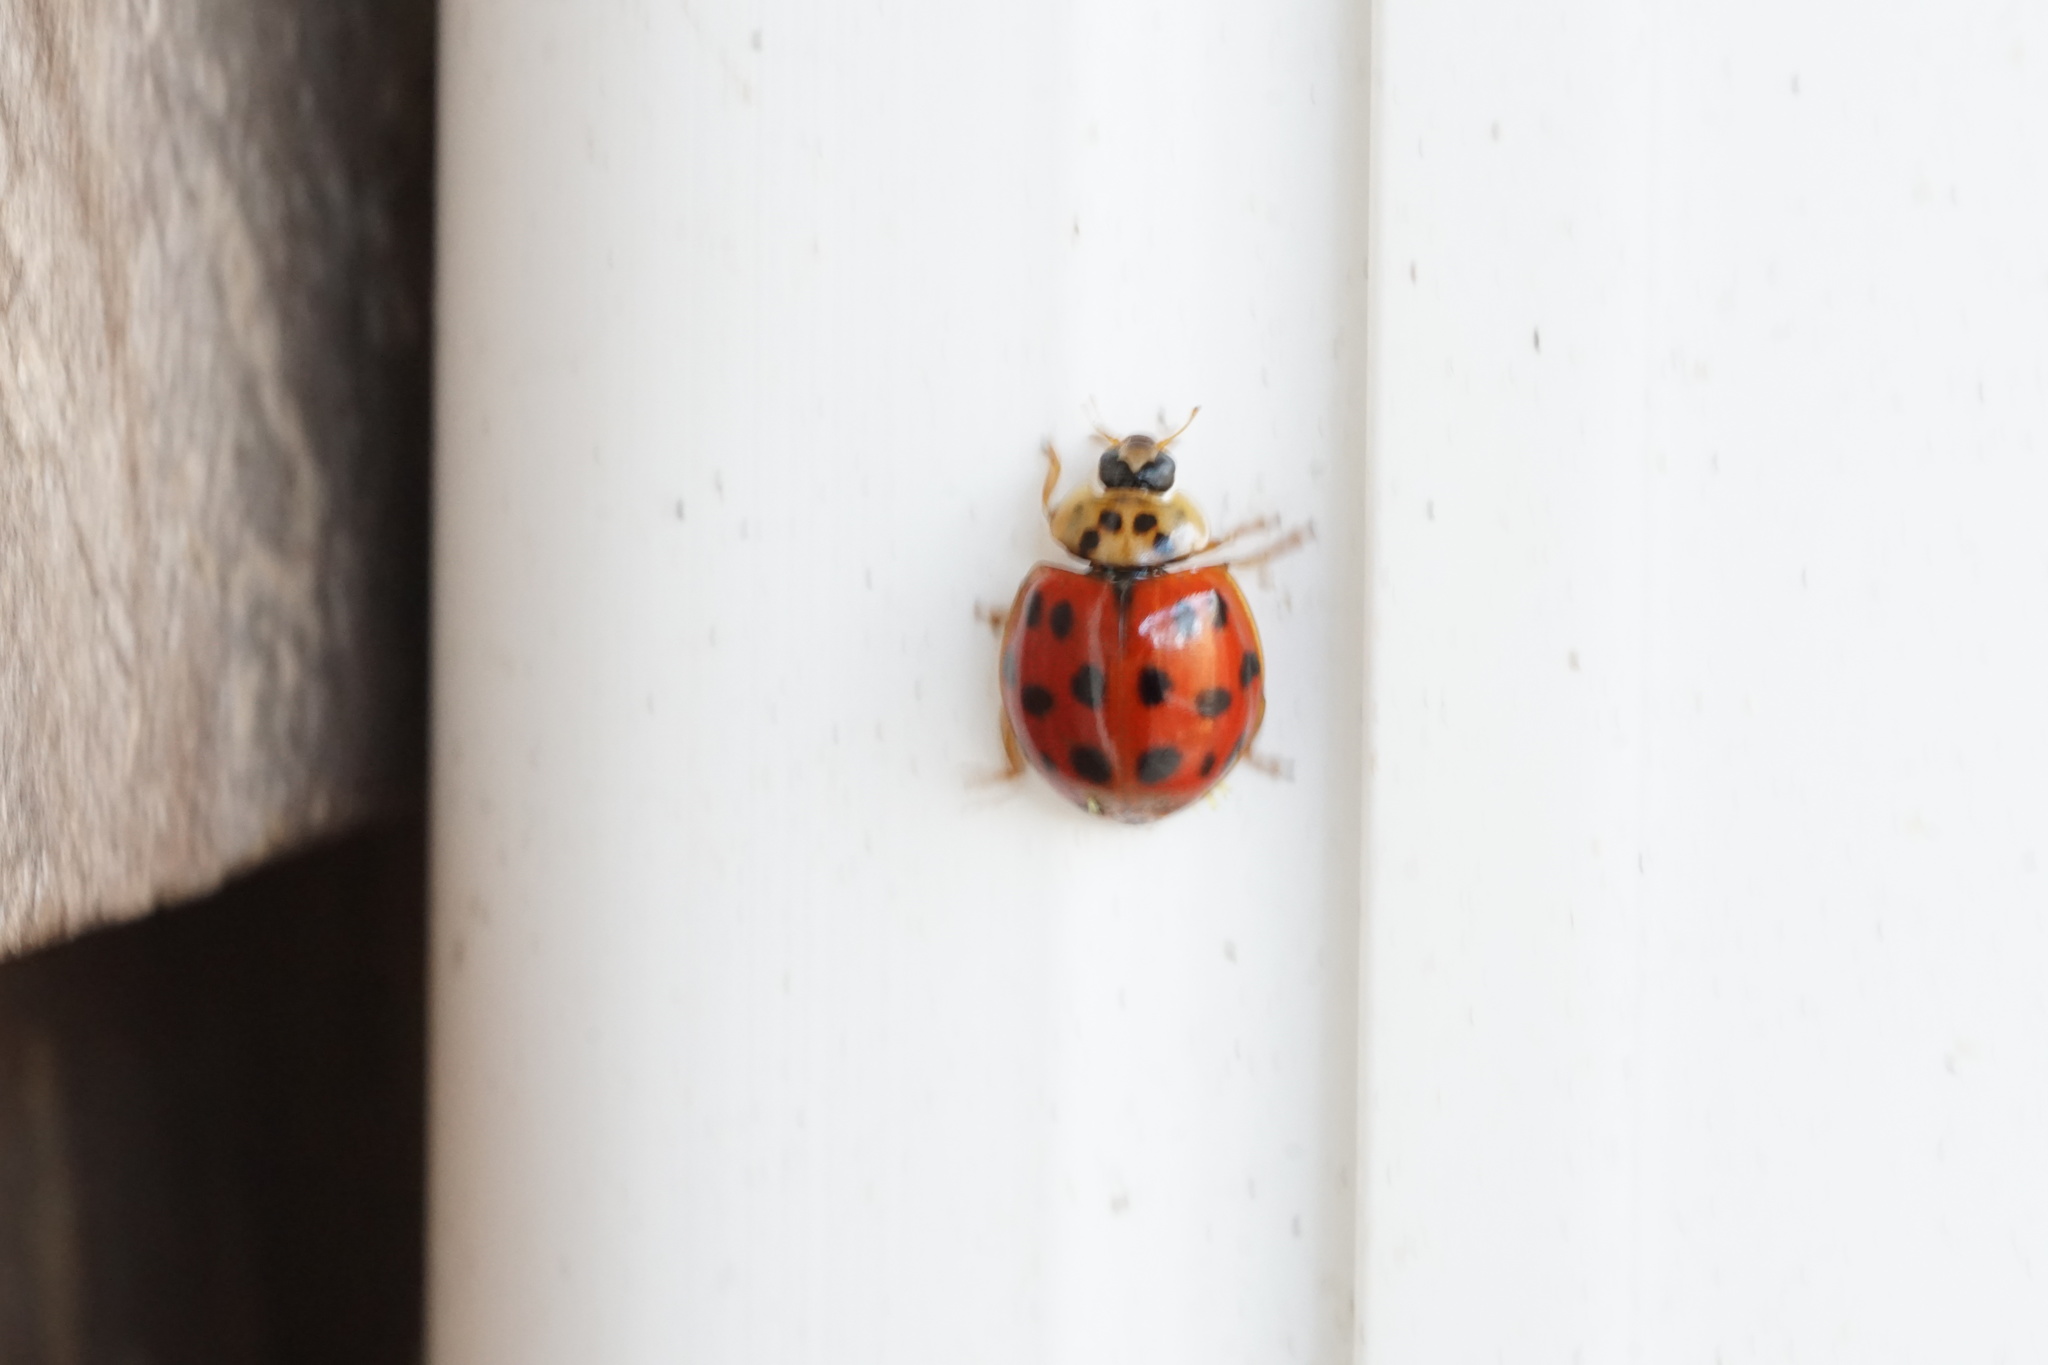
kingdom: Animalia
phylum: Arthropoda
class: Insecta
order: Coleoptera
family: Coccinellidae
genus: Harmonia
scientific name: Harmonia axyridis
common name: Harlequin ladybird
